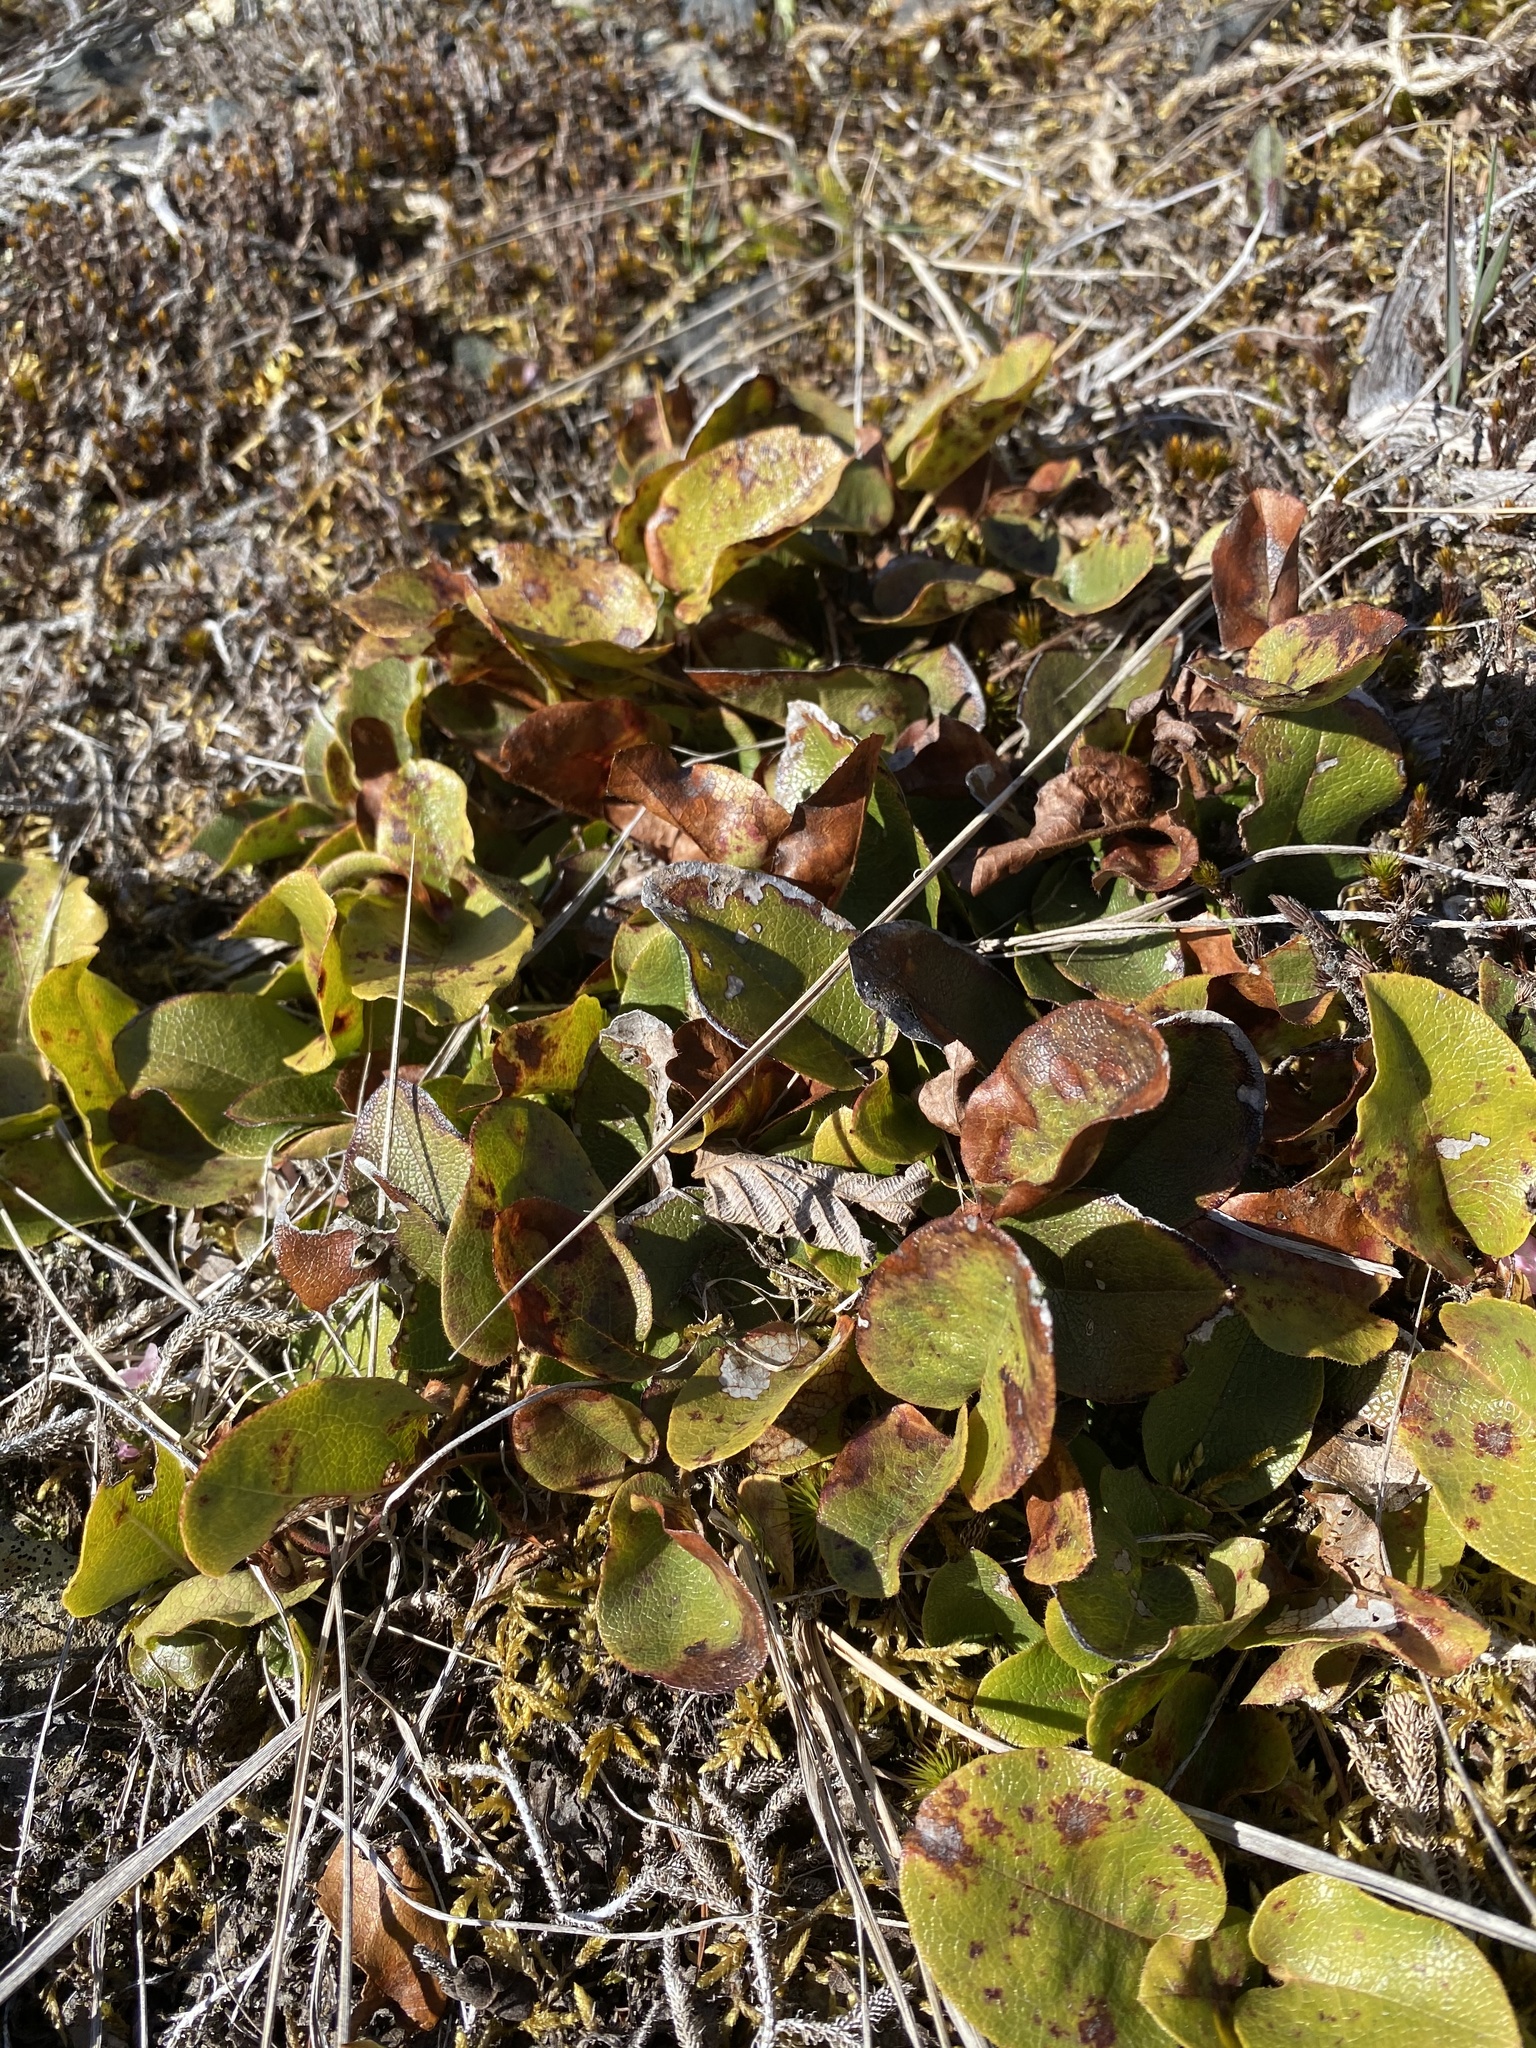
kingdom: Plantae
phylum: Tracheophyta
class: Magnoliopsida
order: Ericales
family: Ericaceae
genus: Epigaea
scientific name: Epigaea repens
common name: Gravelroot
